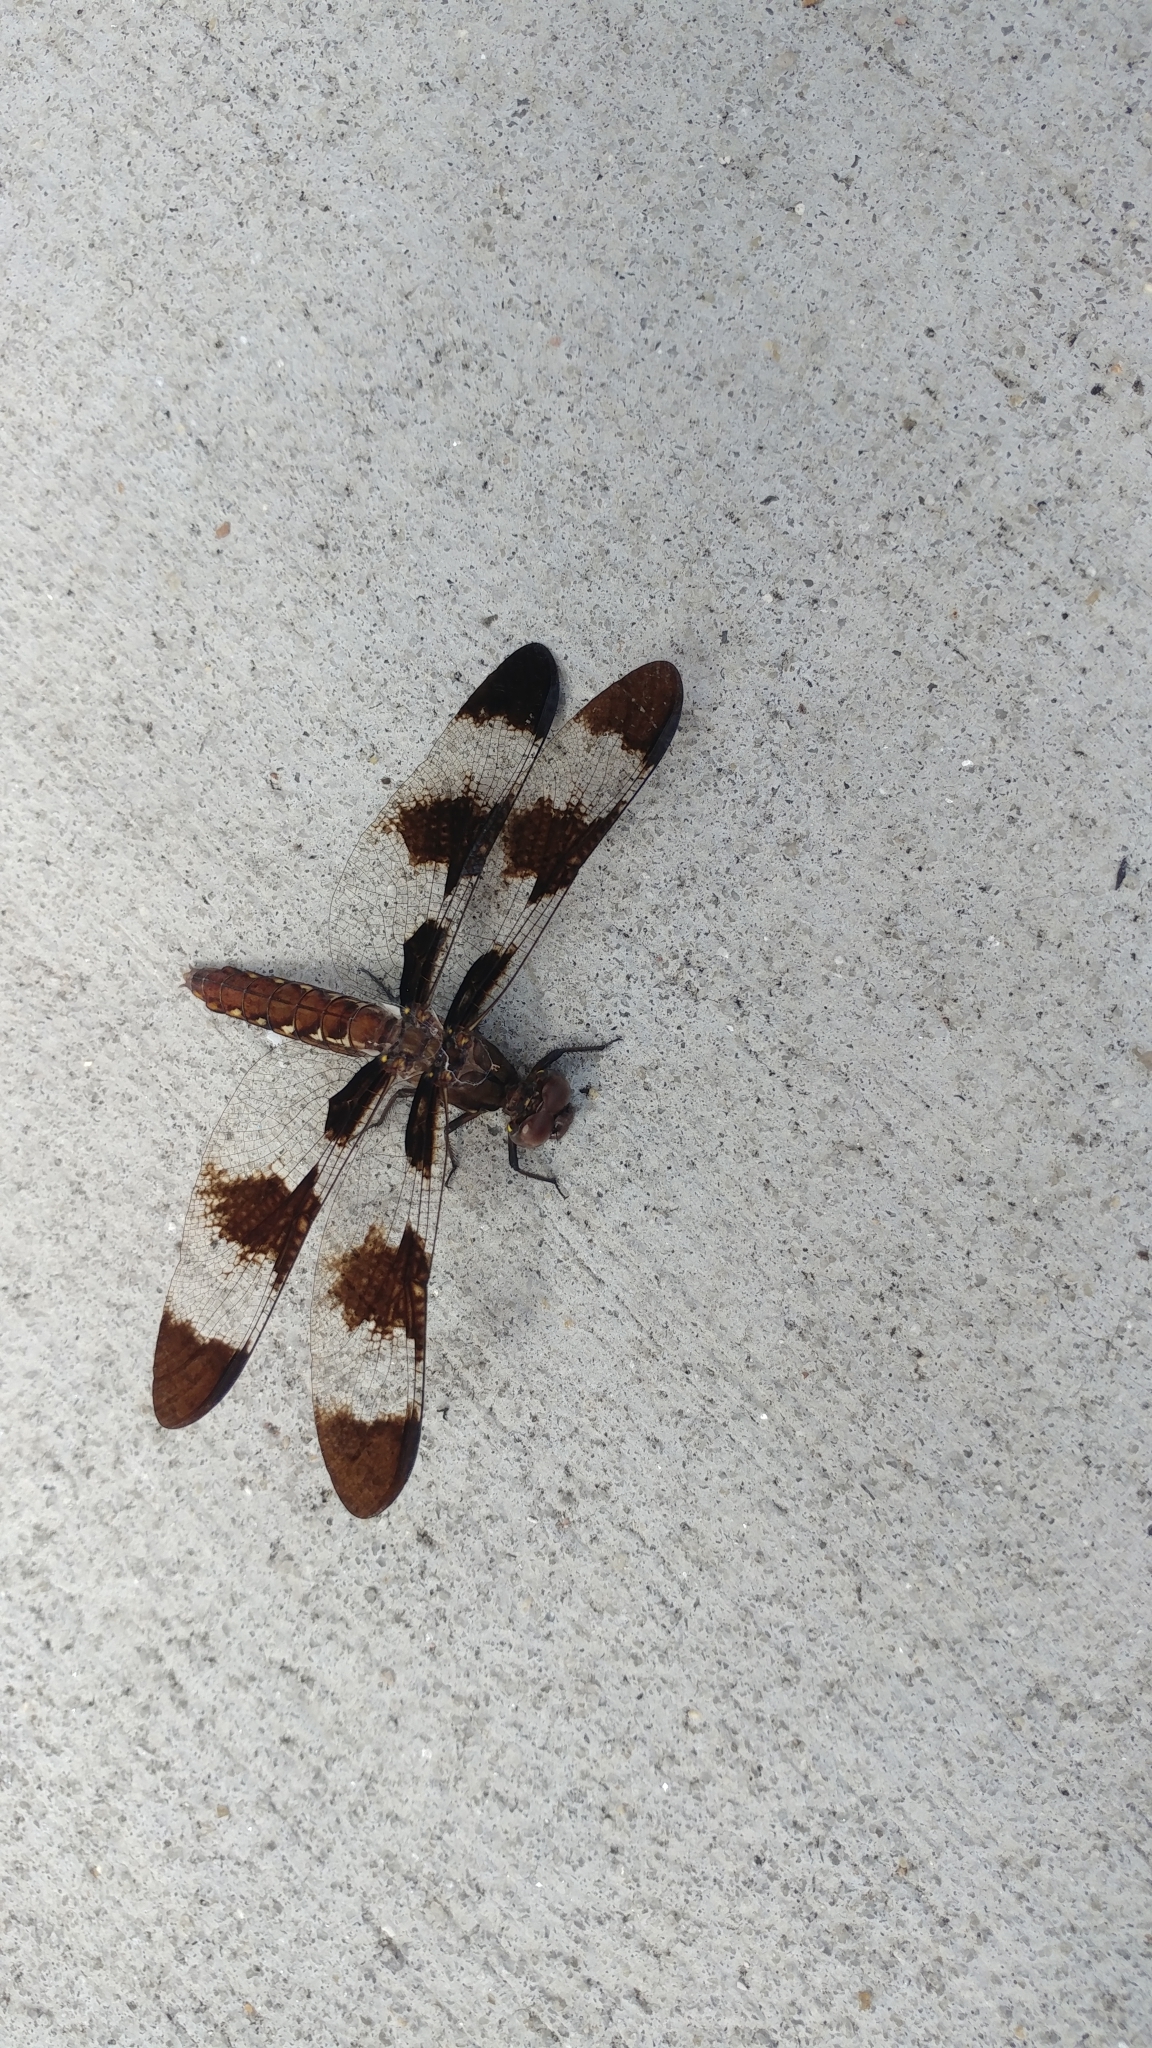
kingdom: Animalia
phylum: Arthropoda
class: Insecta
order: Odonata
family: Libellulidae
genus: Plathemis
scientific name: Plathemis lydia
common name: Common whitetail
